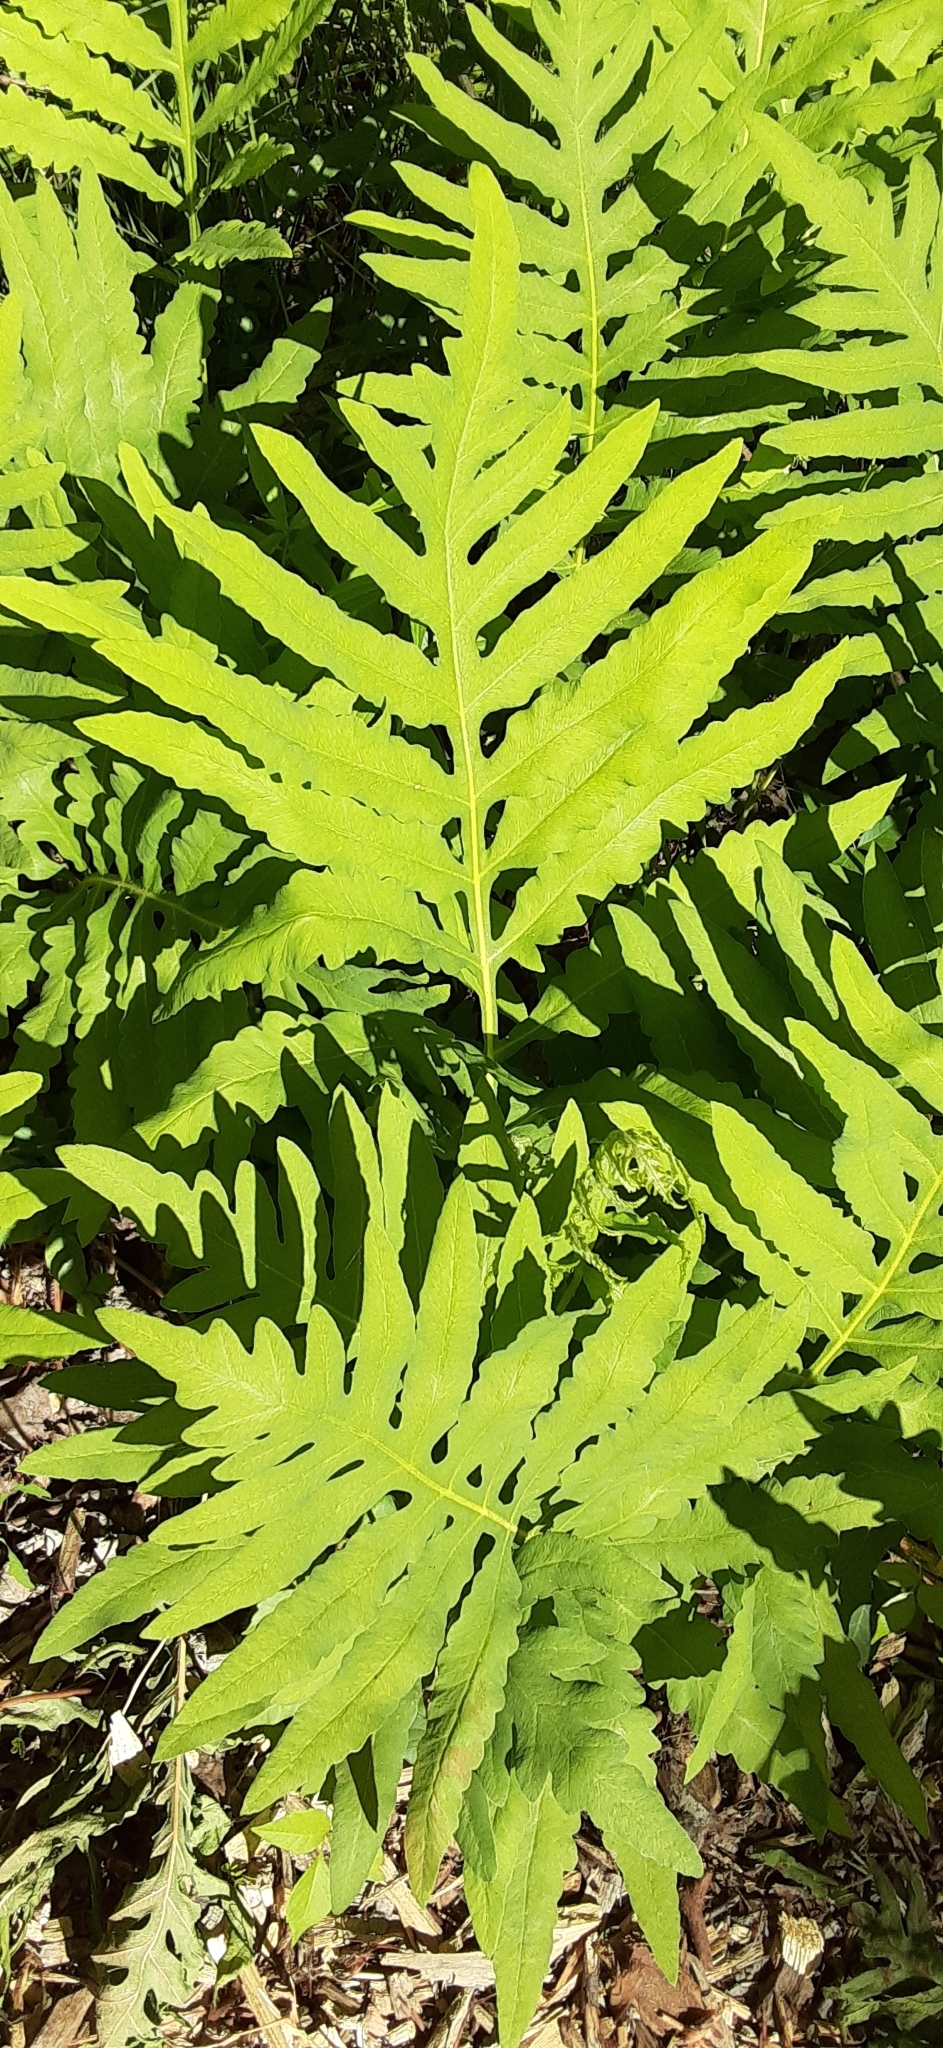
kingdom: Plantae
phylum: Tracheophyta
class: Polypodiopsida
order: Polypodiales
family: Onocleaceae
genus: Onoclea
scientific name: Onoclea sensibilis
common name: Sensitive fern
